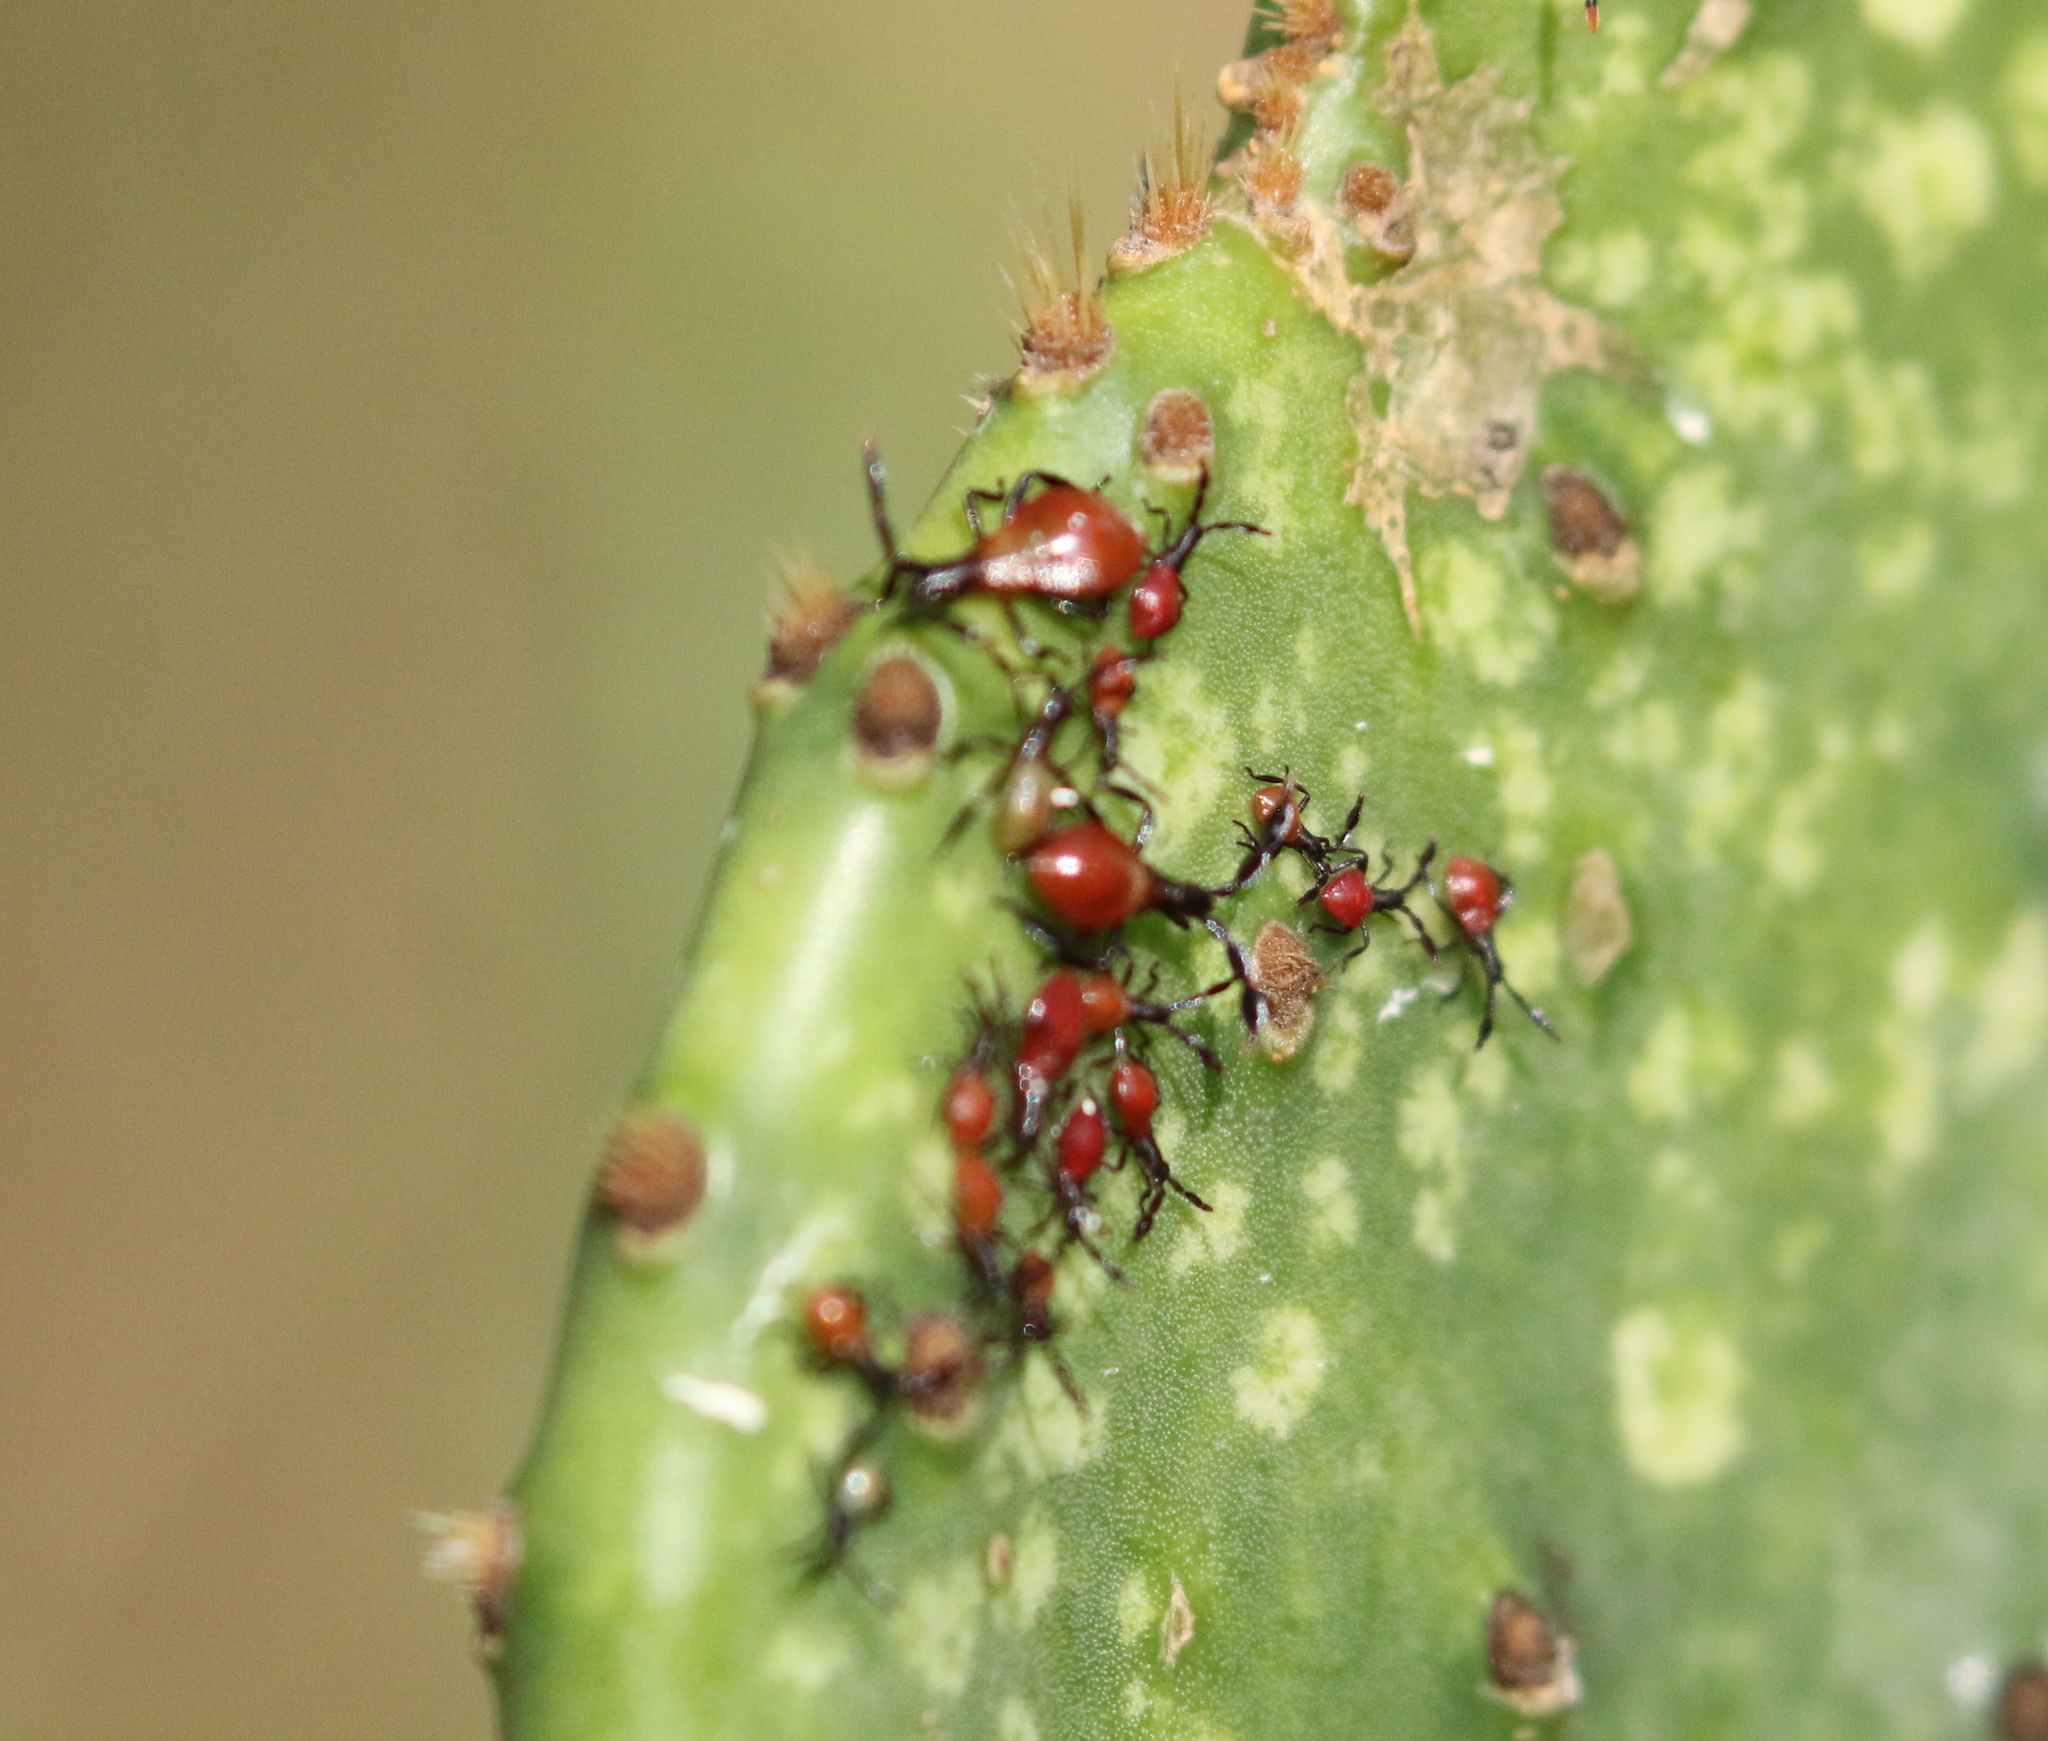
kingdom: Animalia
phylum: Arthropoda
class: Insecta
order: Hemiptera
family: Coreidae
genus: Chelinidea
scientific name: Chelinidea vittiger
